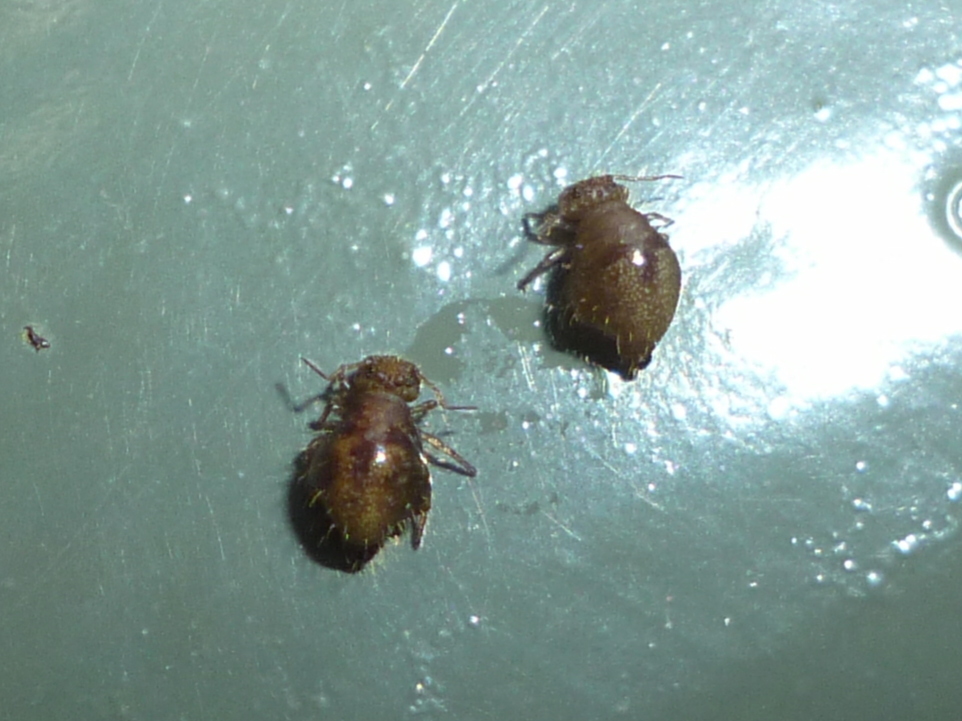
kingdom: Animalia
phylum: Arthropoda
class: Collembola
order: Symphypleona
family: Sminthuridae
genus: Allacma
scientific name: Allacma fusca
